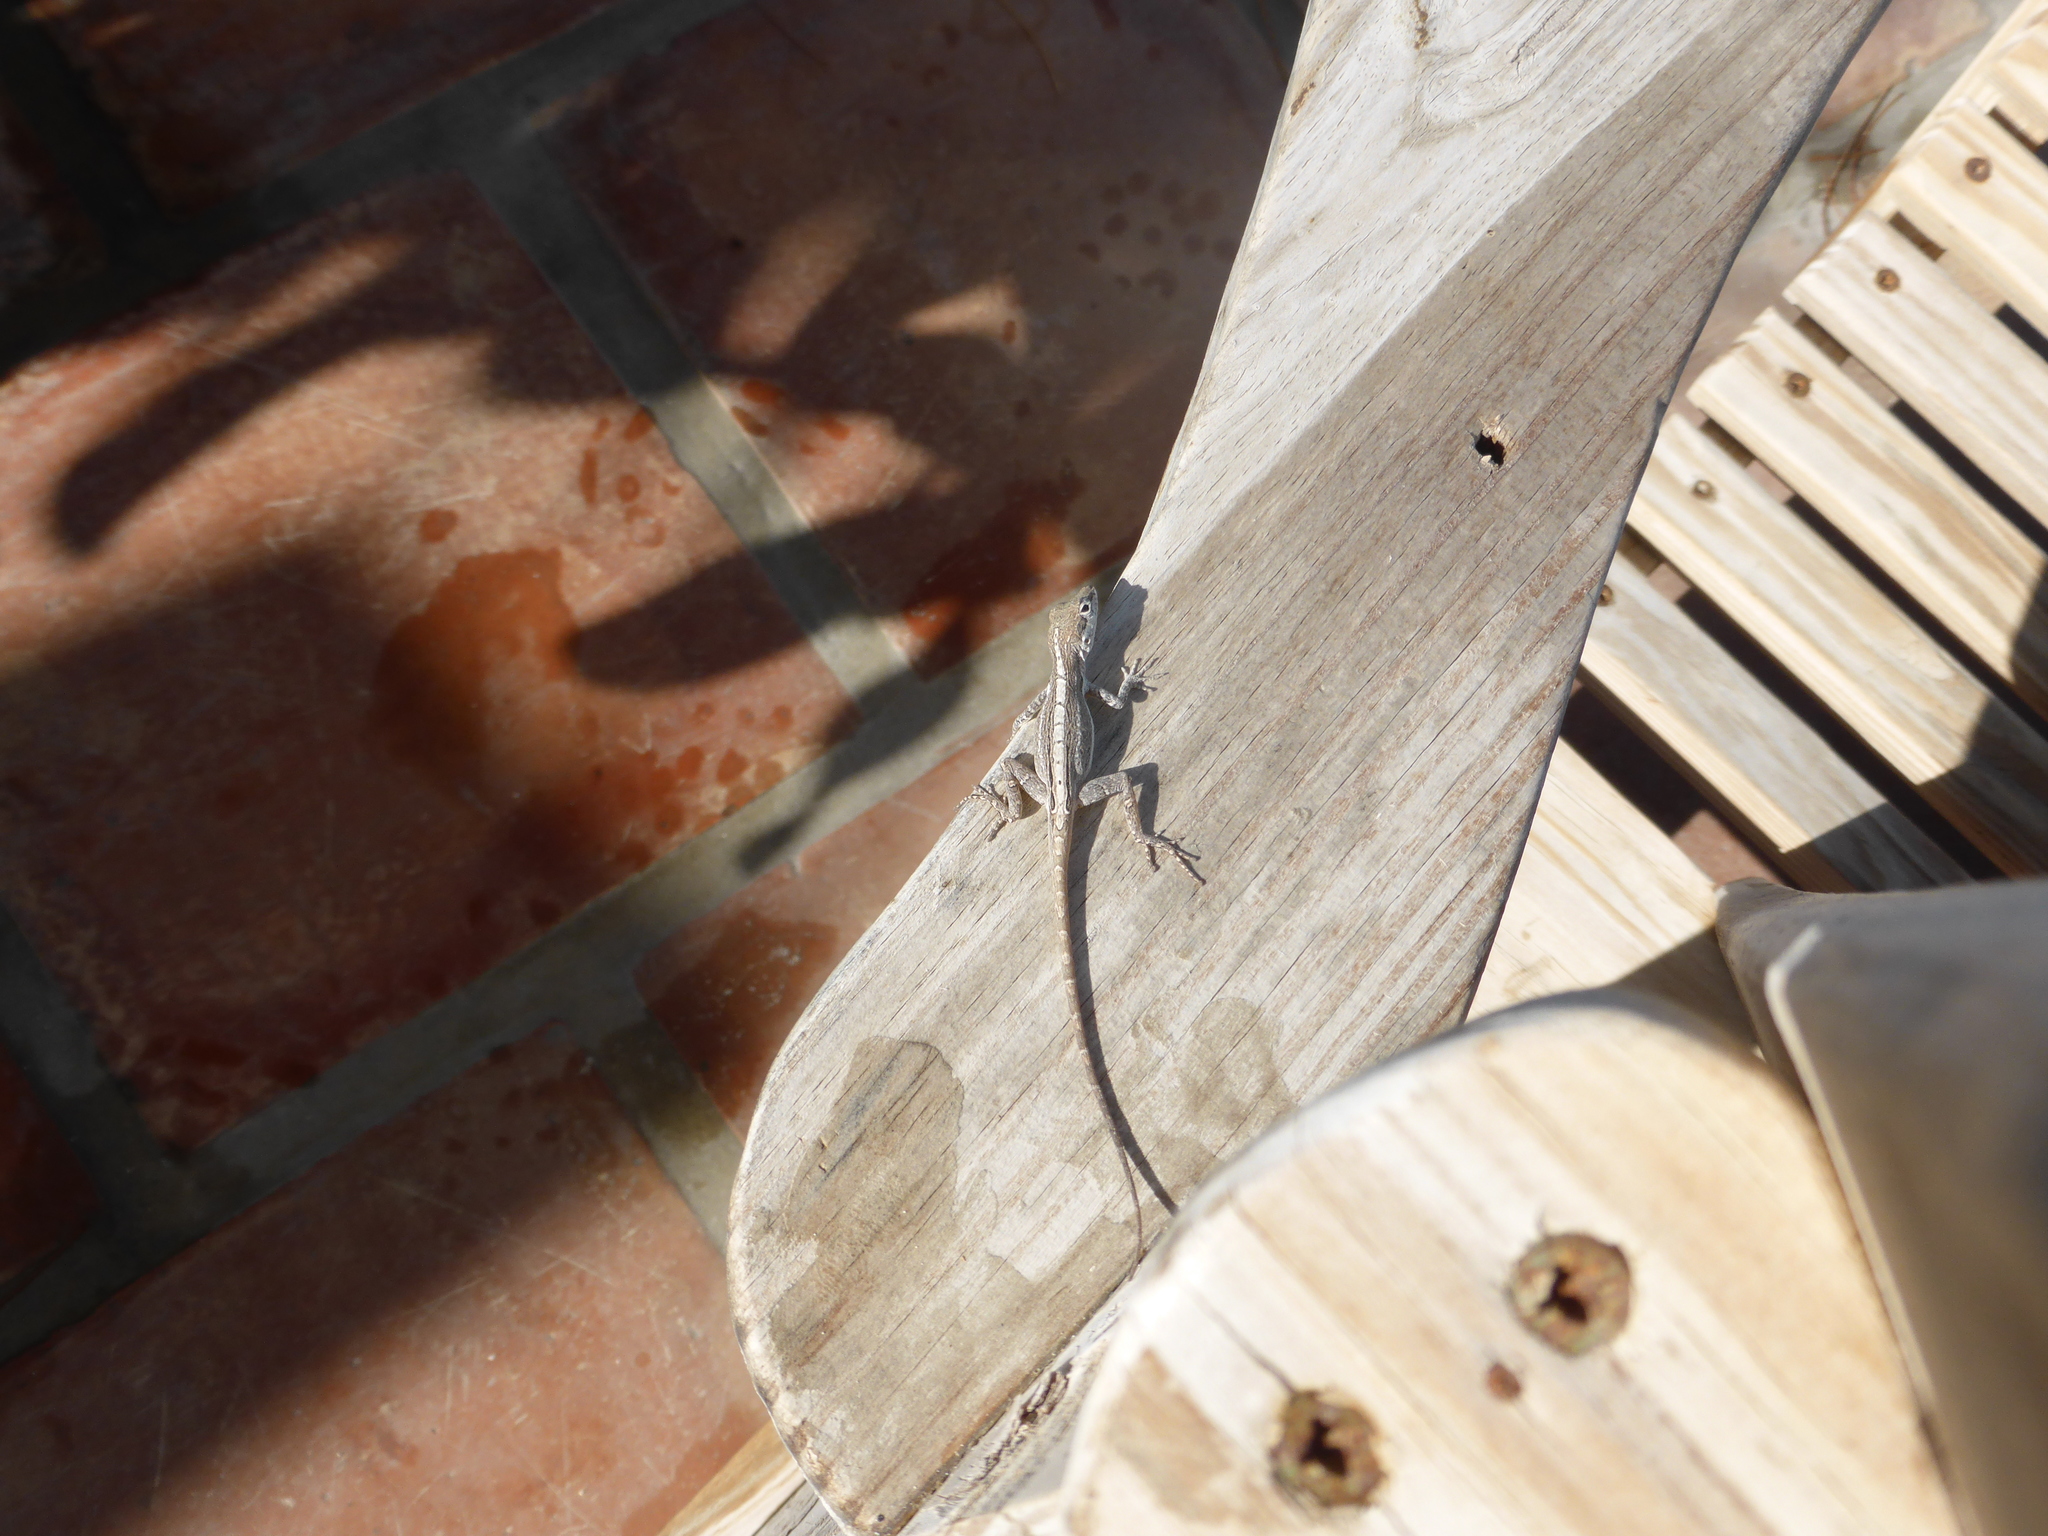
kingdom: Animalia
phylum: Chordata
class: Squamata
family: Dactyloidae
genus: Anolis
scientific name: Anolis scriptus
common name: Silver key anole
